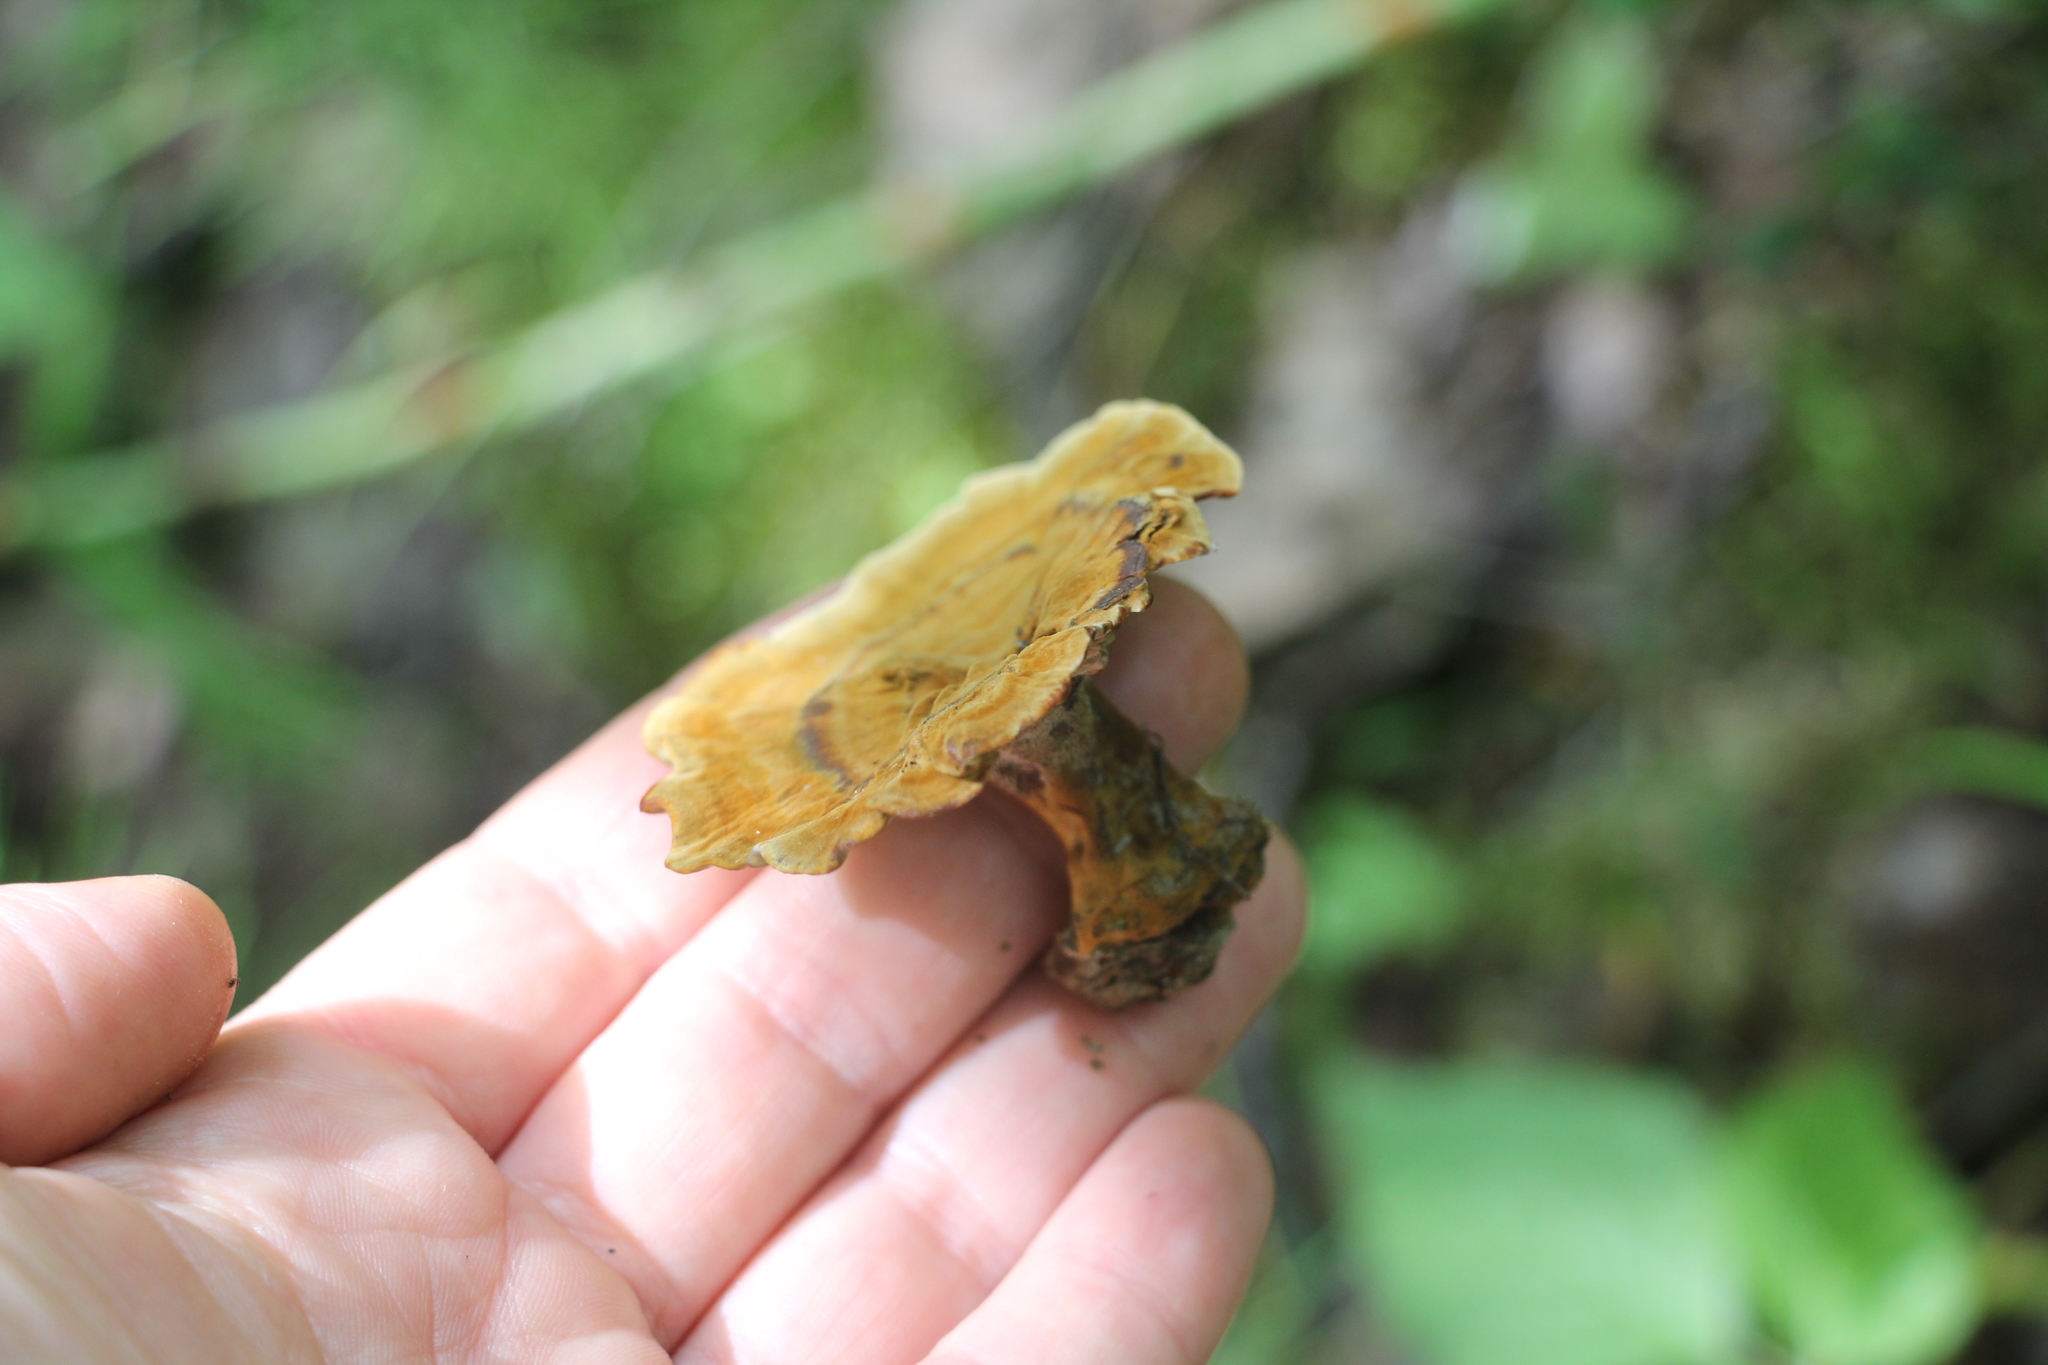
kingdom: Fungi
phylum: Basidiomycota
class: Agaricomycetes
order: Hymenochaetales
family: Hymenochaetaceae
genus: Coltricia
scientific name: Coltricia perennis
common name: Tiger's eye
